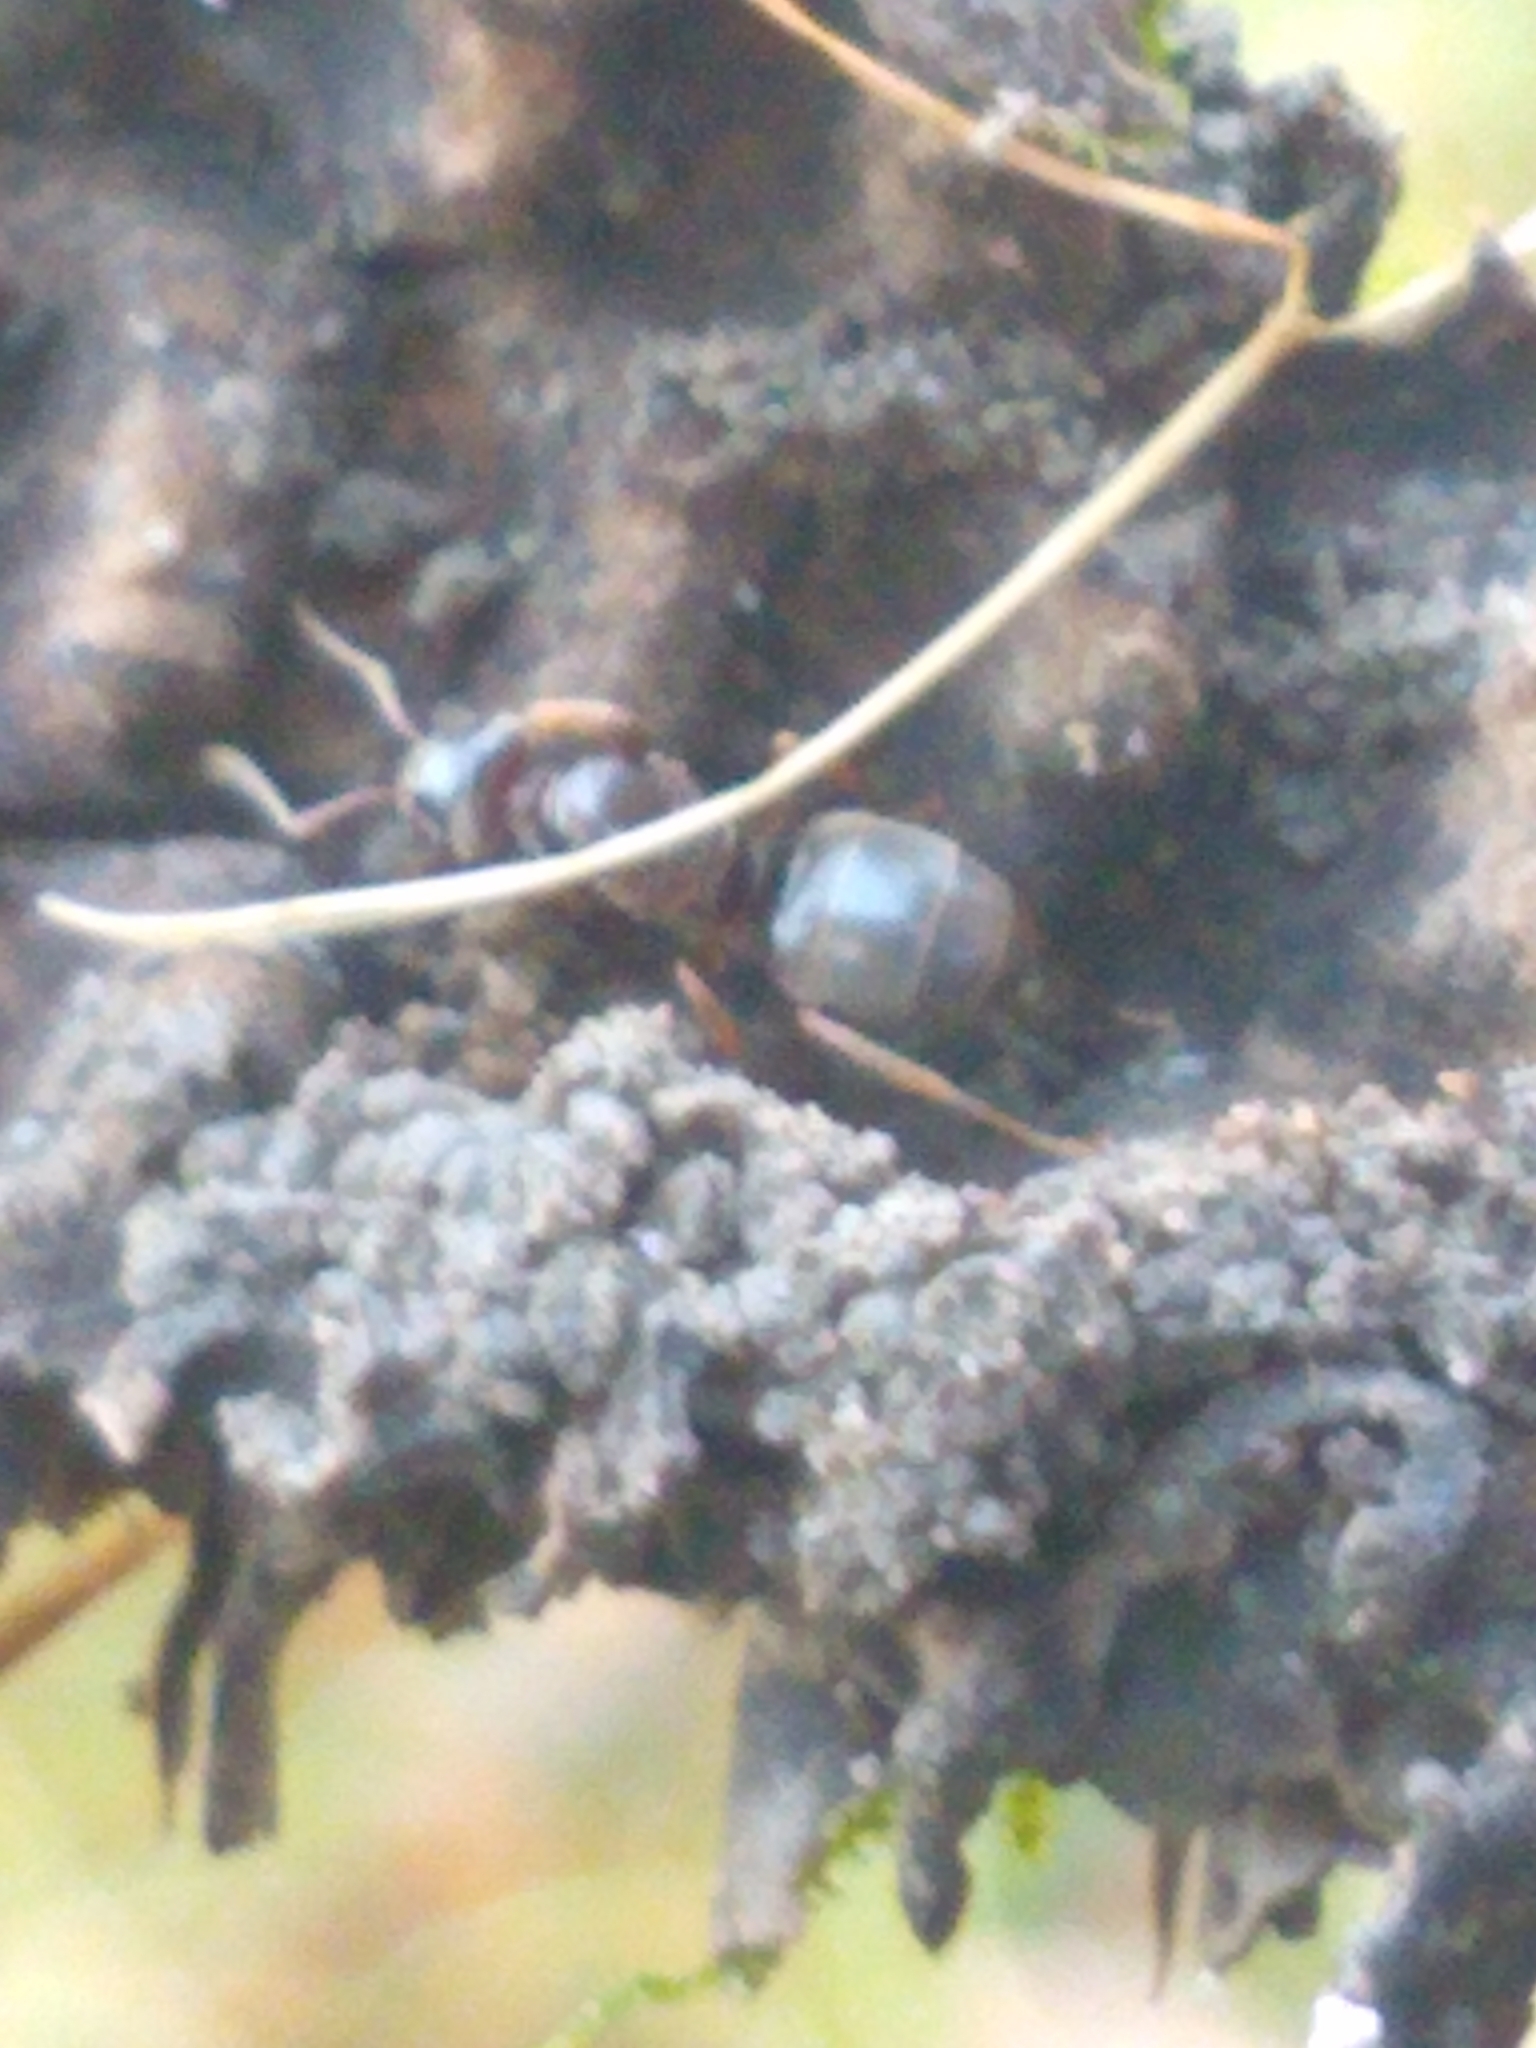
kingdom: Animalia
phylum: Arthropoda
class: Insecta
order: Hymenoptera
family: Formicidae
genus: Lasius
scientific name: Lasius aphidicola
